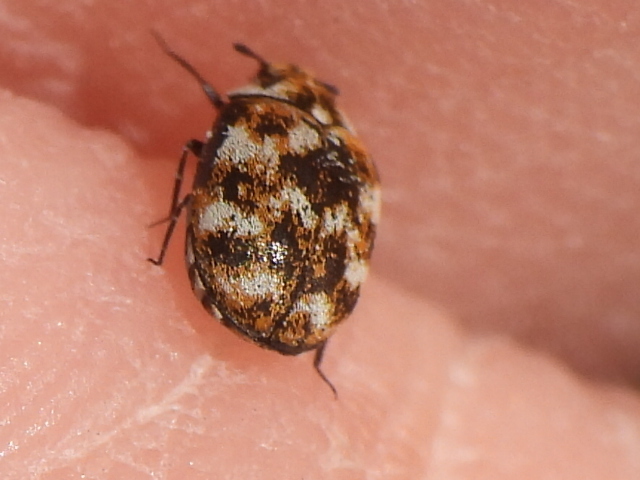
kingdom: Animalia
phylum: Arthropoda
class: Insecta
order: Coleoptera
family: Dermestidae
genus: Anthrenus
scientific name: Anthrenus verbasci
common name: Varied carpet beetle
